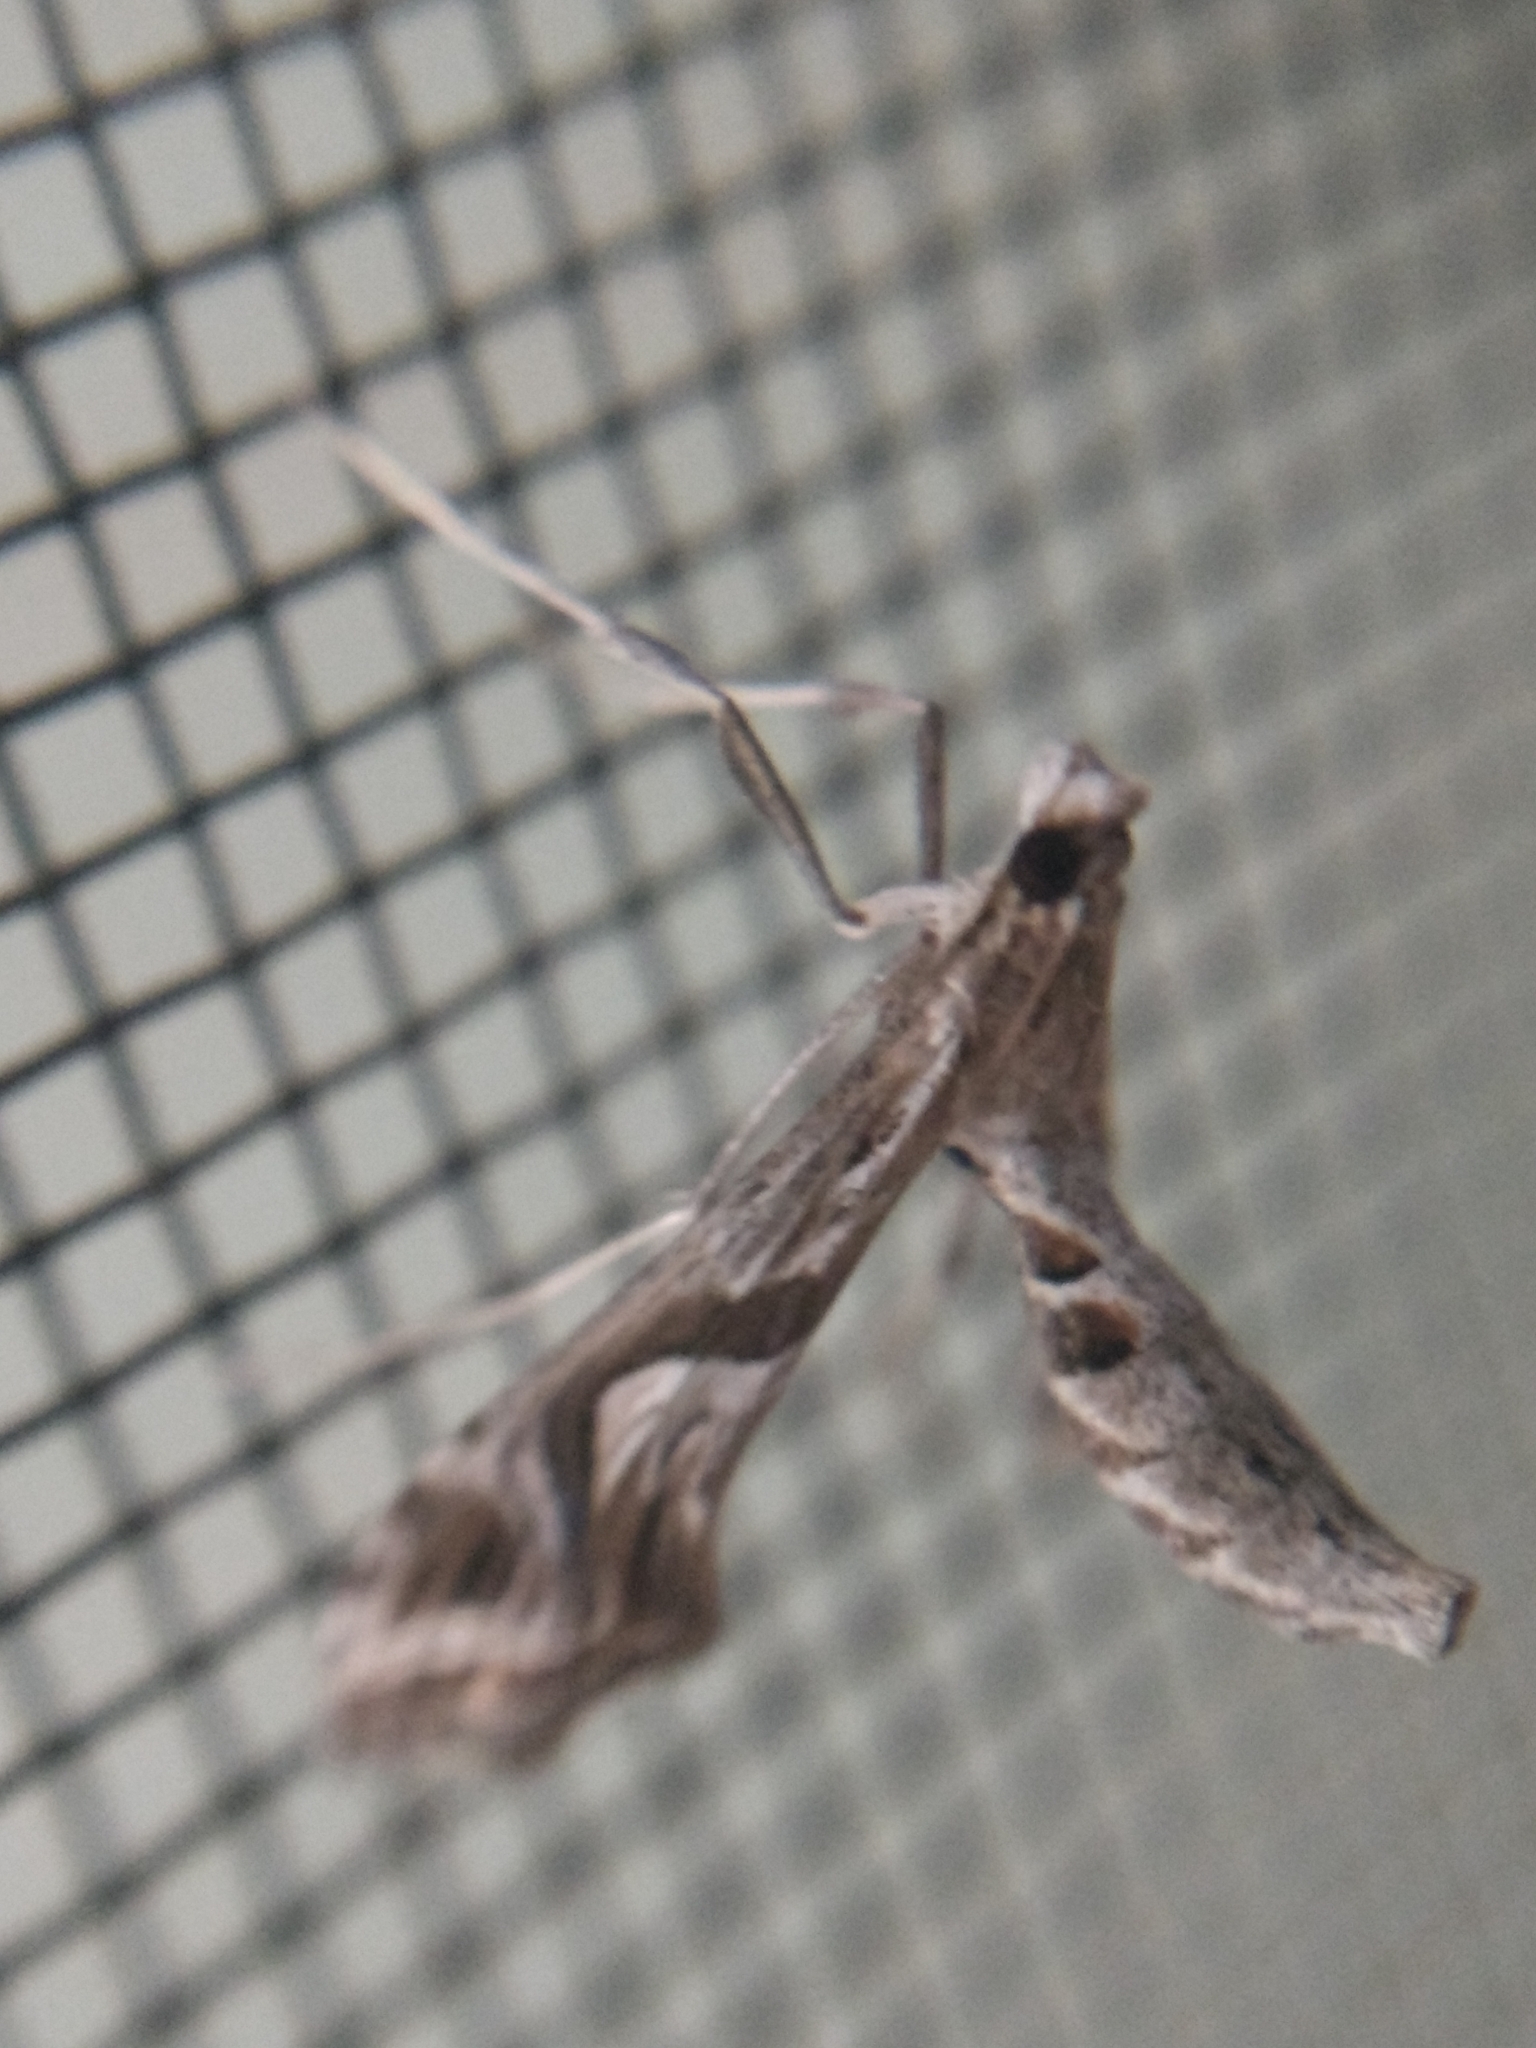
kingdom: Animalia
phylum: Arthropoda
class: Insecta
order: Lepidoptera
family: Crambidae
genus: Lineodes
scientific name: Lineodes integra
